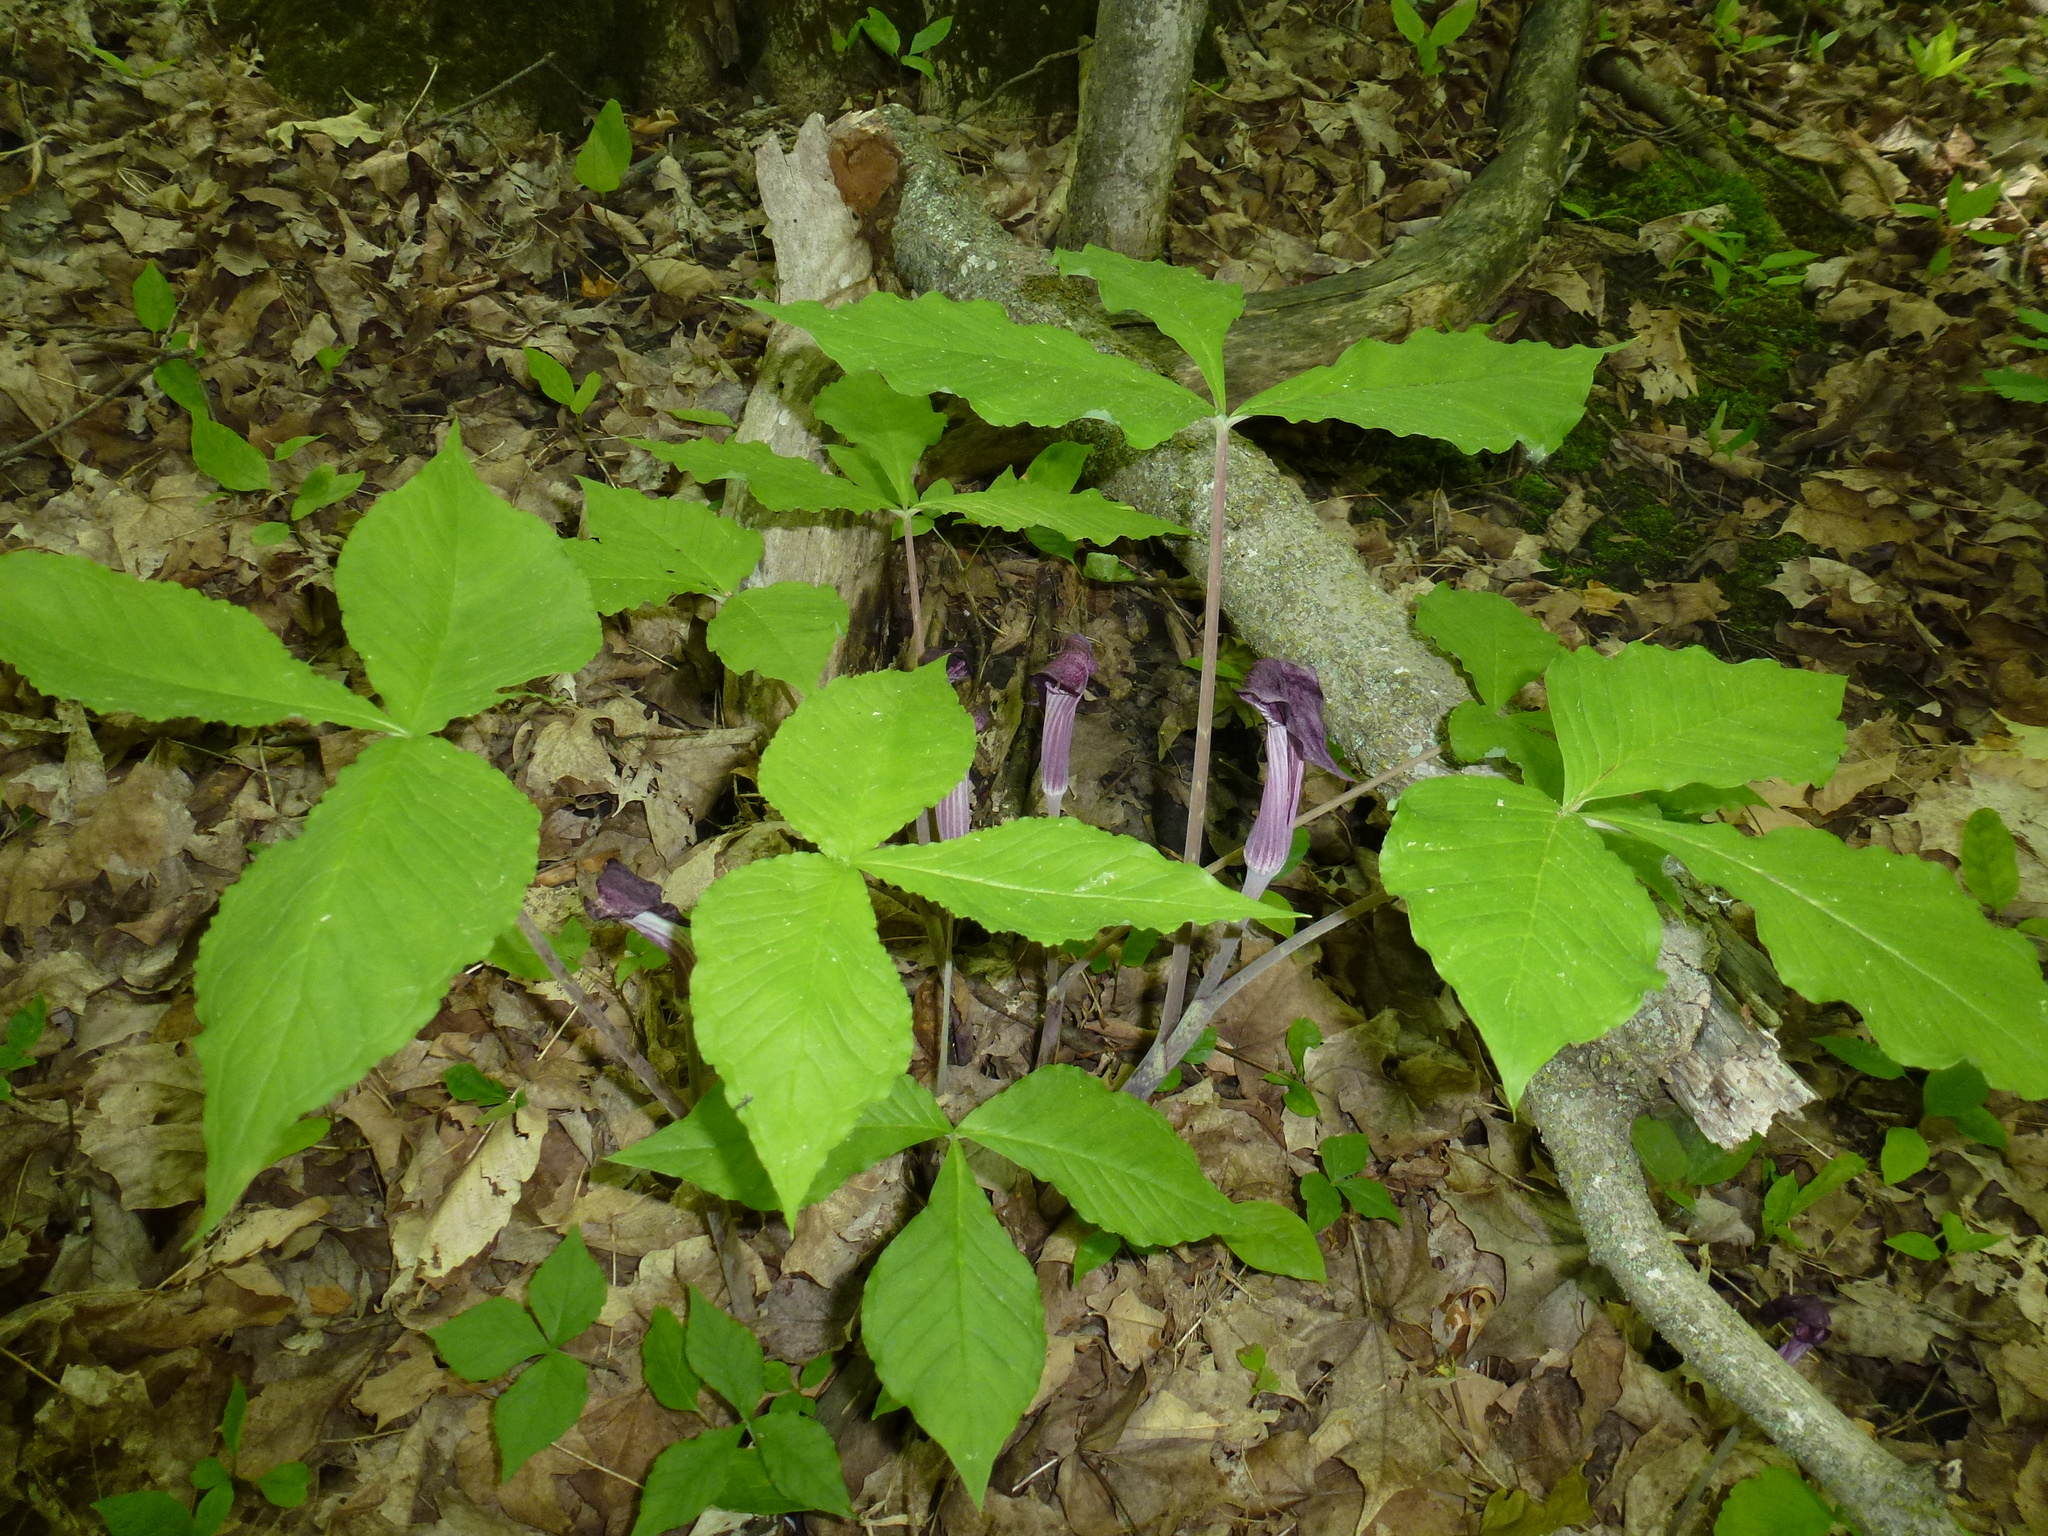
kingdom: Plantae
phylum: Tracheophyta
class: Liliopsida
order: Alismatales
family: Araceae
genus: Arisaema
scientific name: Arisaema triphyllum
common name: Jack-in-the-pulpit
